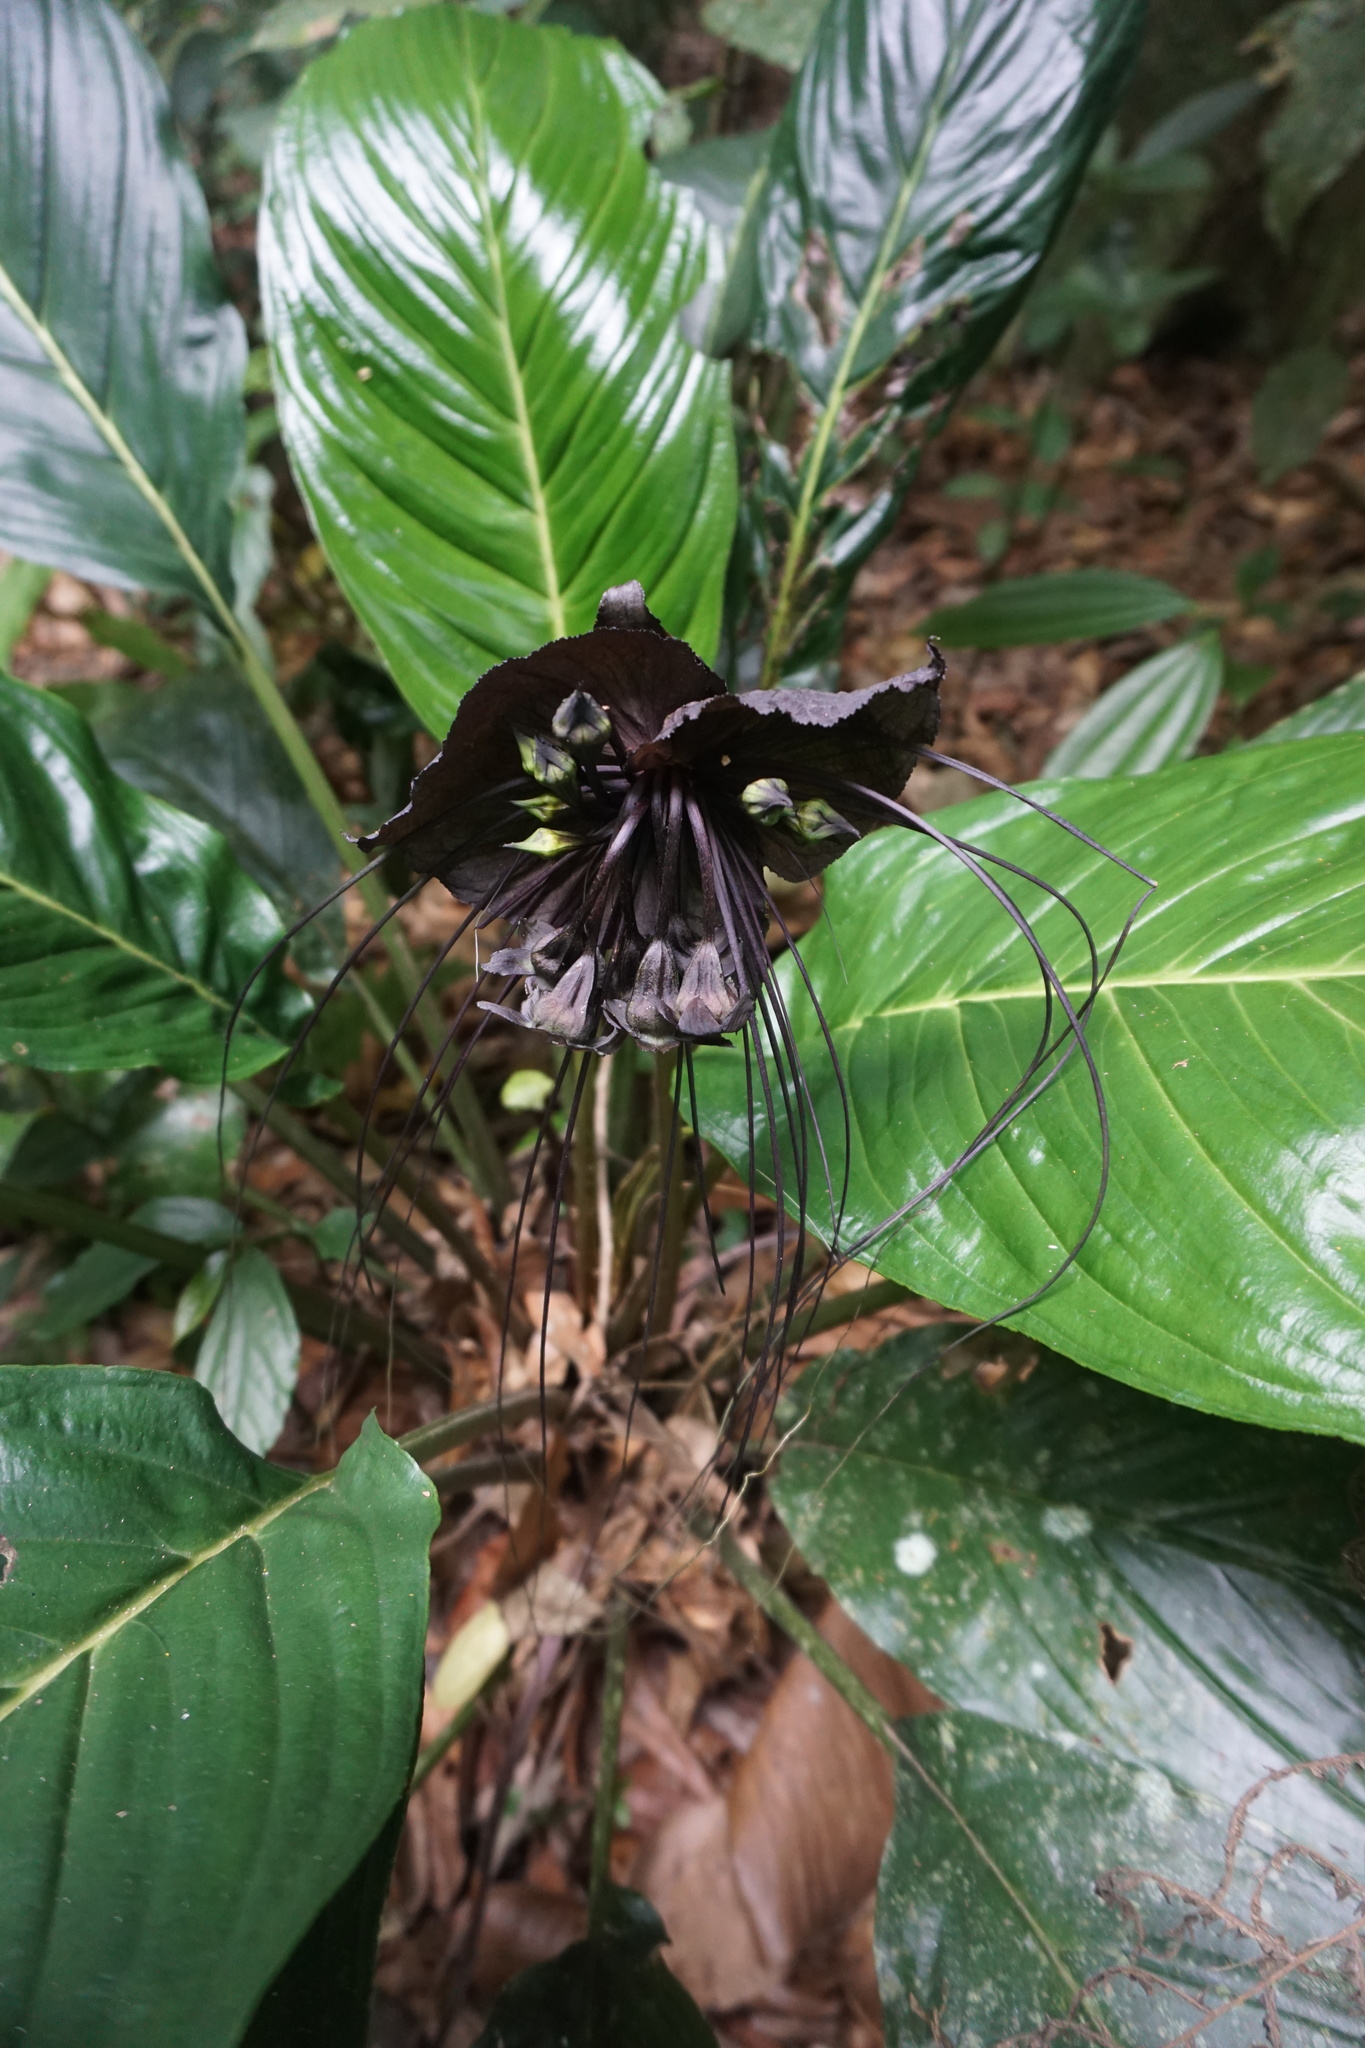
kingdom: Plantae
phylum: Tracheophyta
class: Liliopsida
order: Dioscoreales
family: Dioscoreaceae
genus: Tacca
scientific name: Tacca chantrieri
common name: Cat's-whiskers
